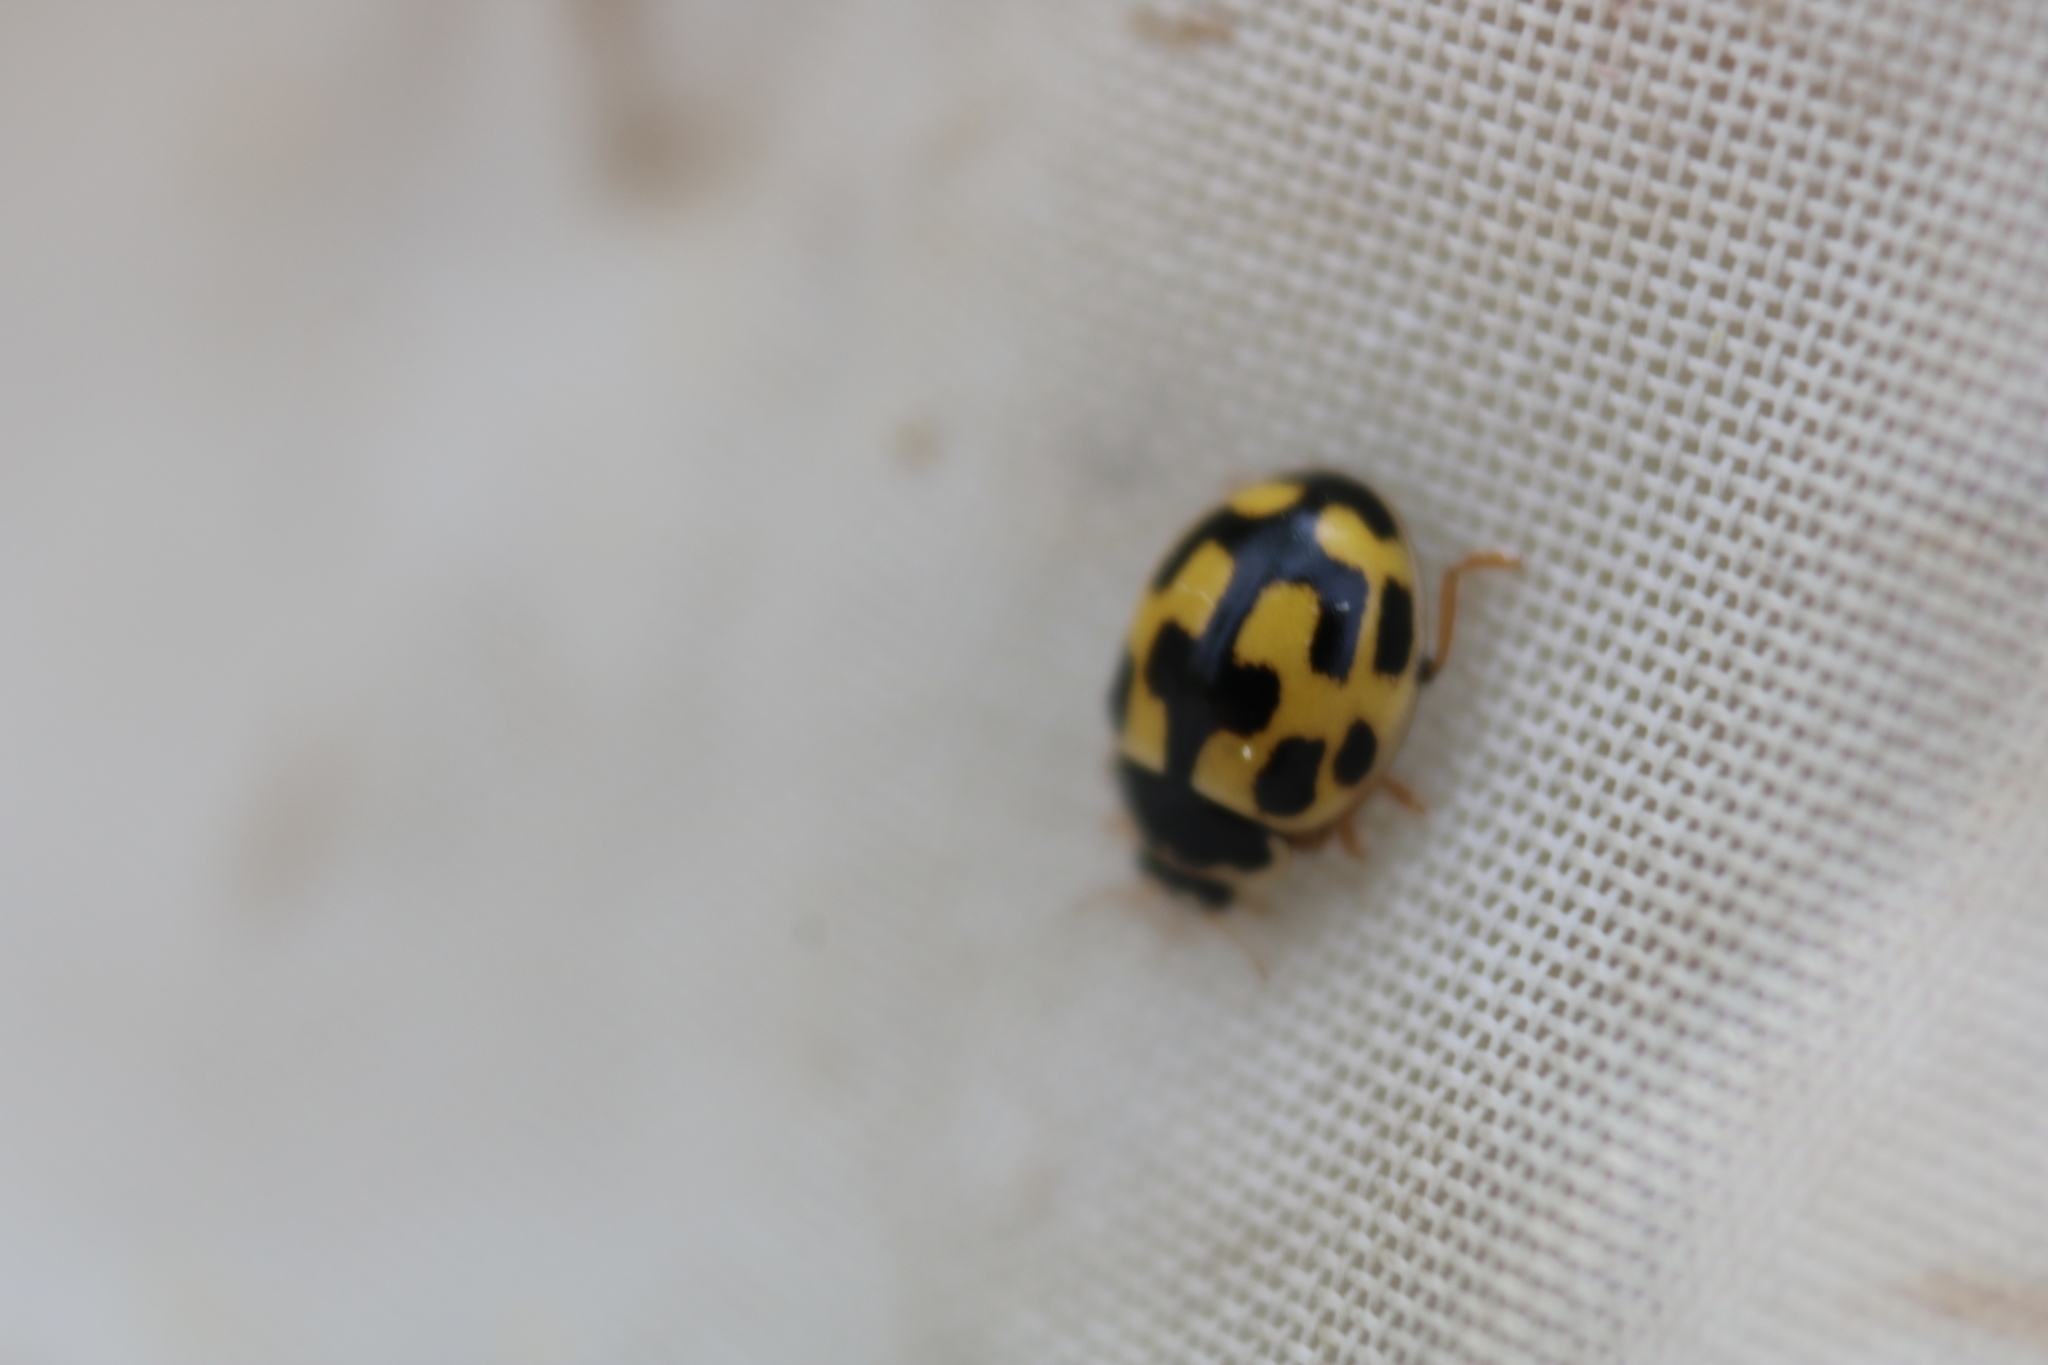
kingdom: Animalia
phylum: Arthropoda
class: Insecta
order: Coleoptera
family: Coccinellidae
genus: Propylaea
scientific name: Propylaea quatuordecimpunctata
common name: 14-spotted ladybird beetle
